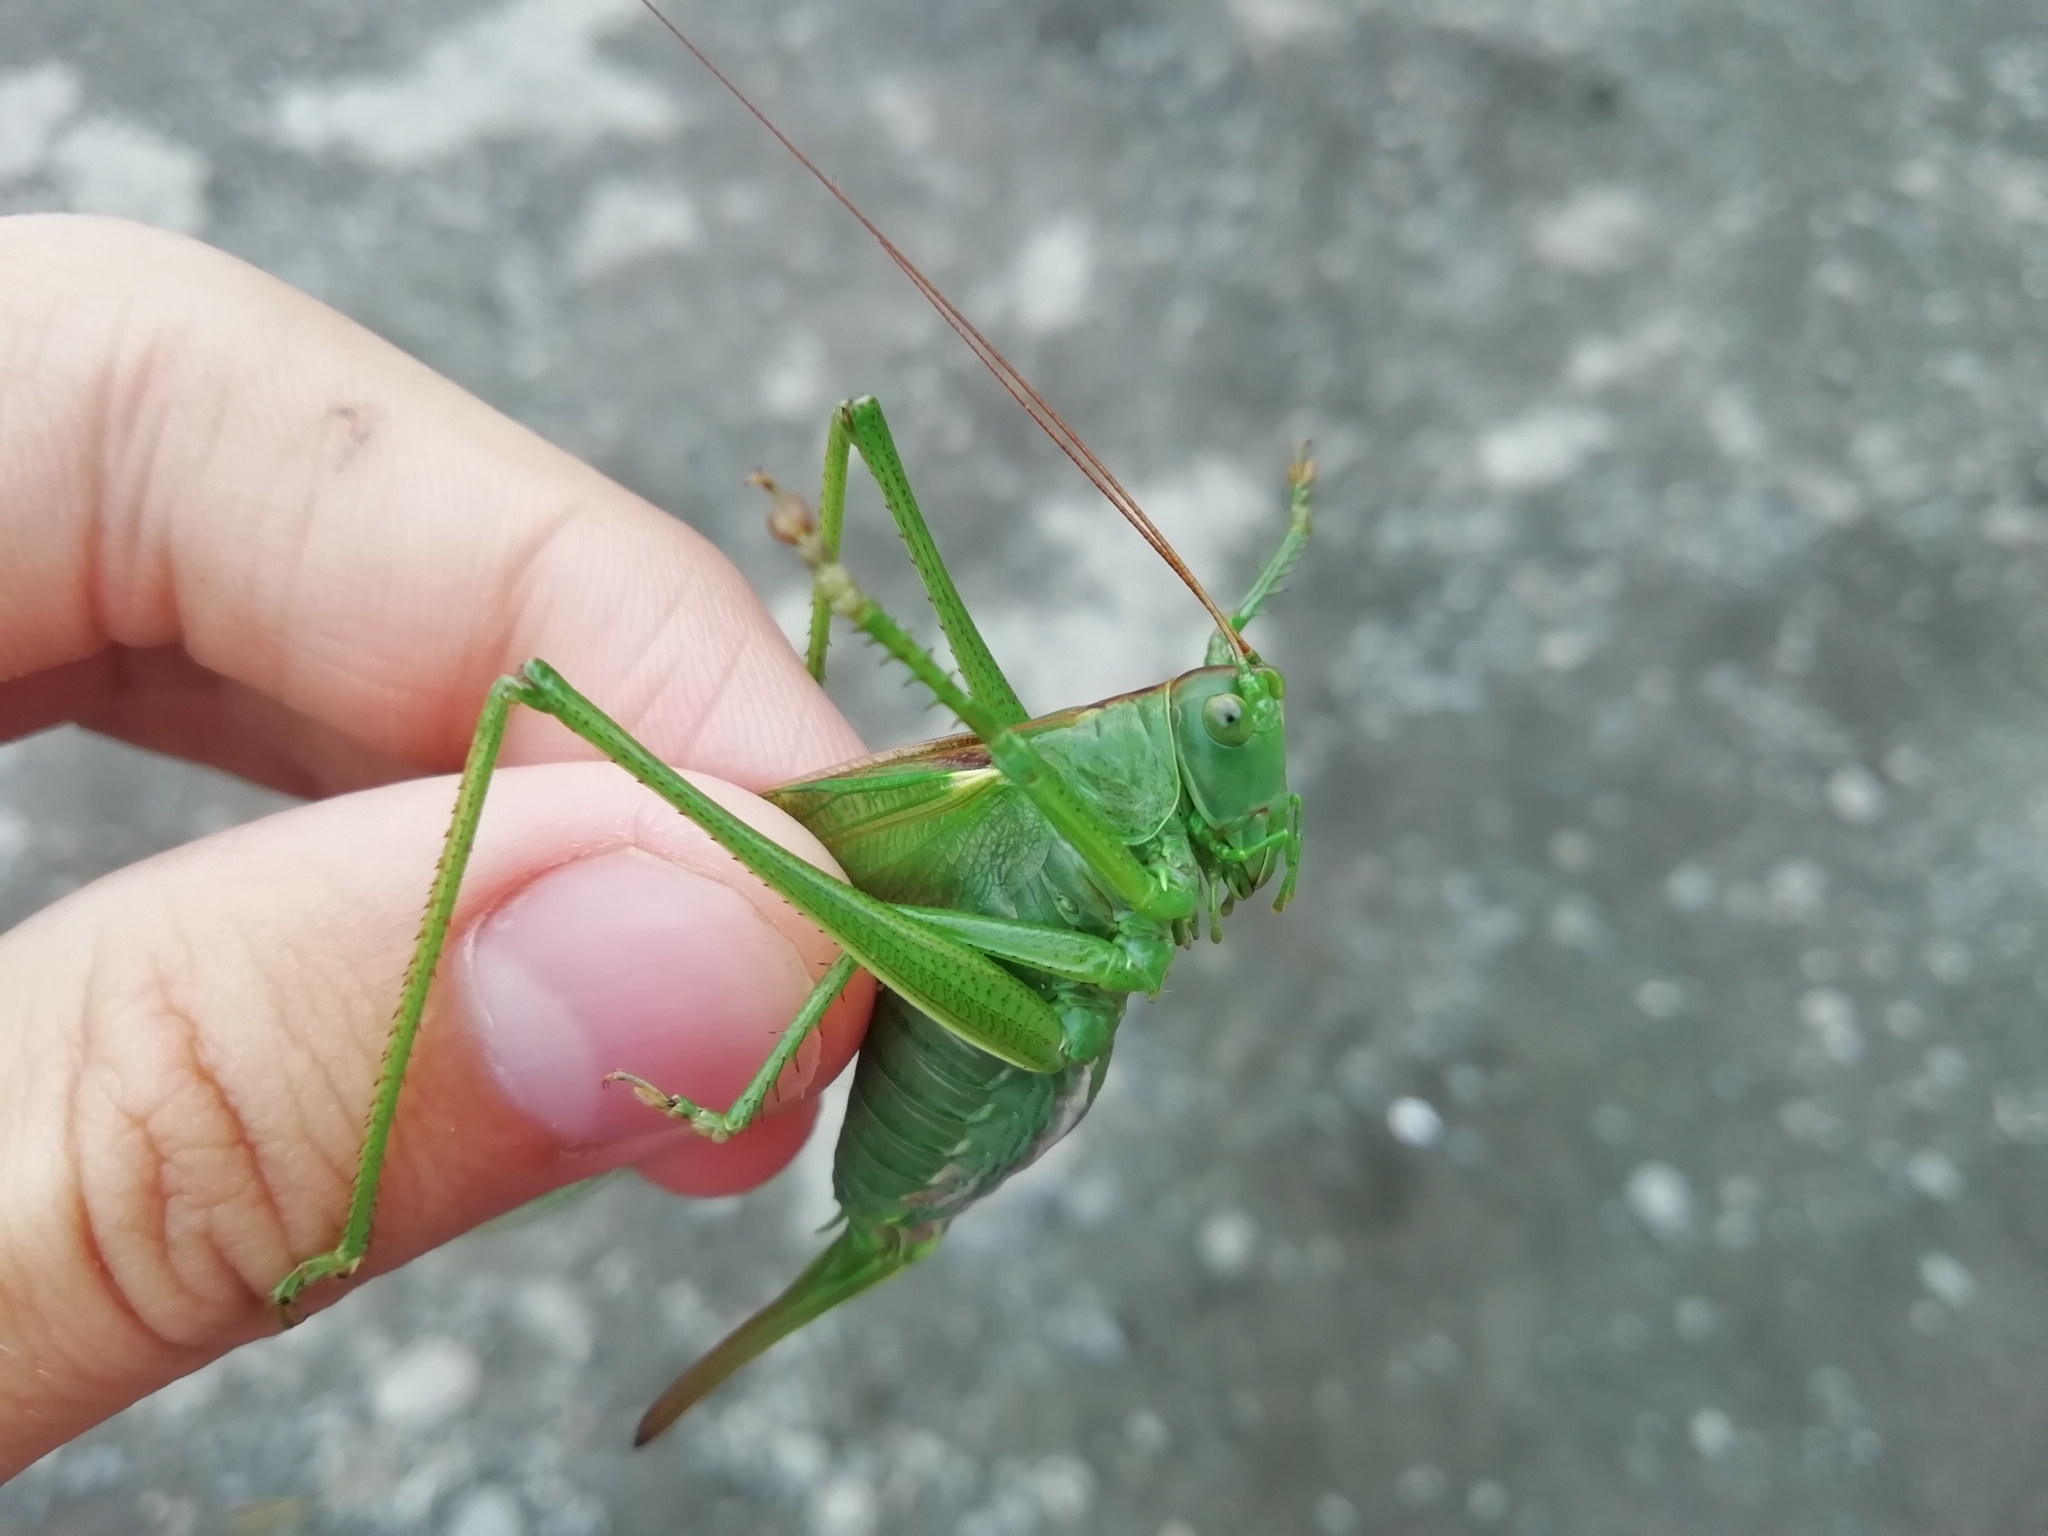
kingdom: Animalia
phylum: Arthropoda
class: Insecta
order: Orthoptera
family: Tettigoniidae
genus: Tettigonia
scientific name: Tettigonia viridissima
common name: Great green bush-cricket
